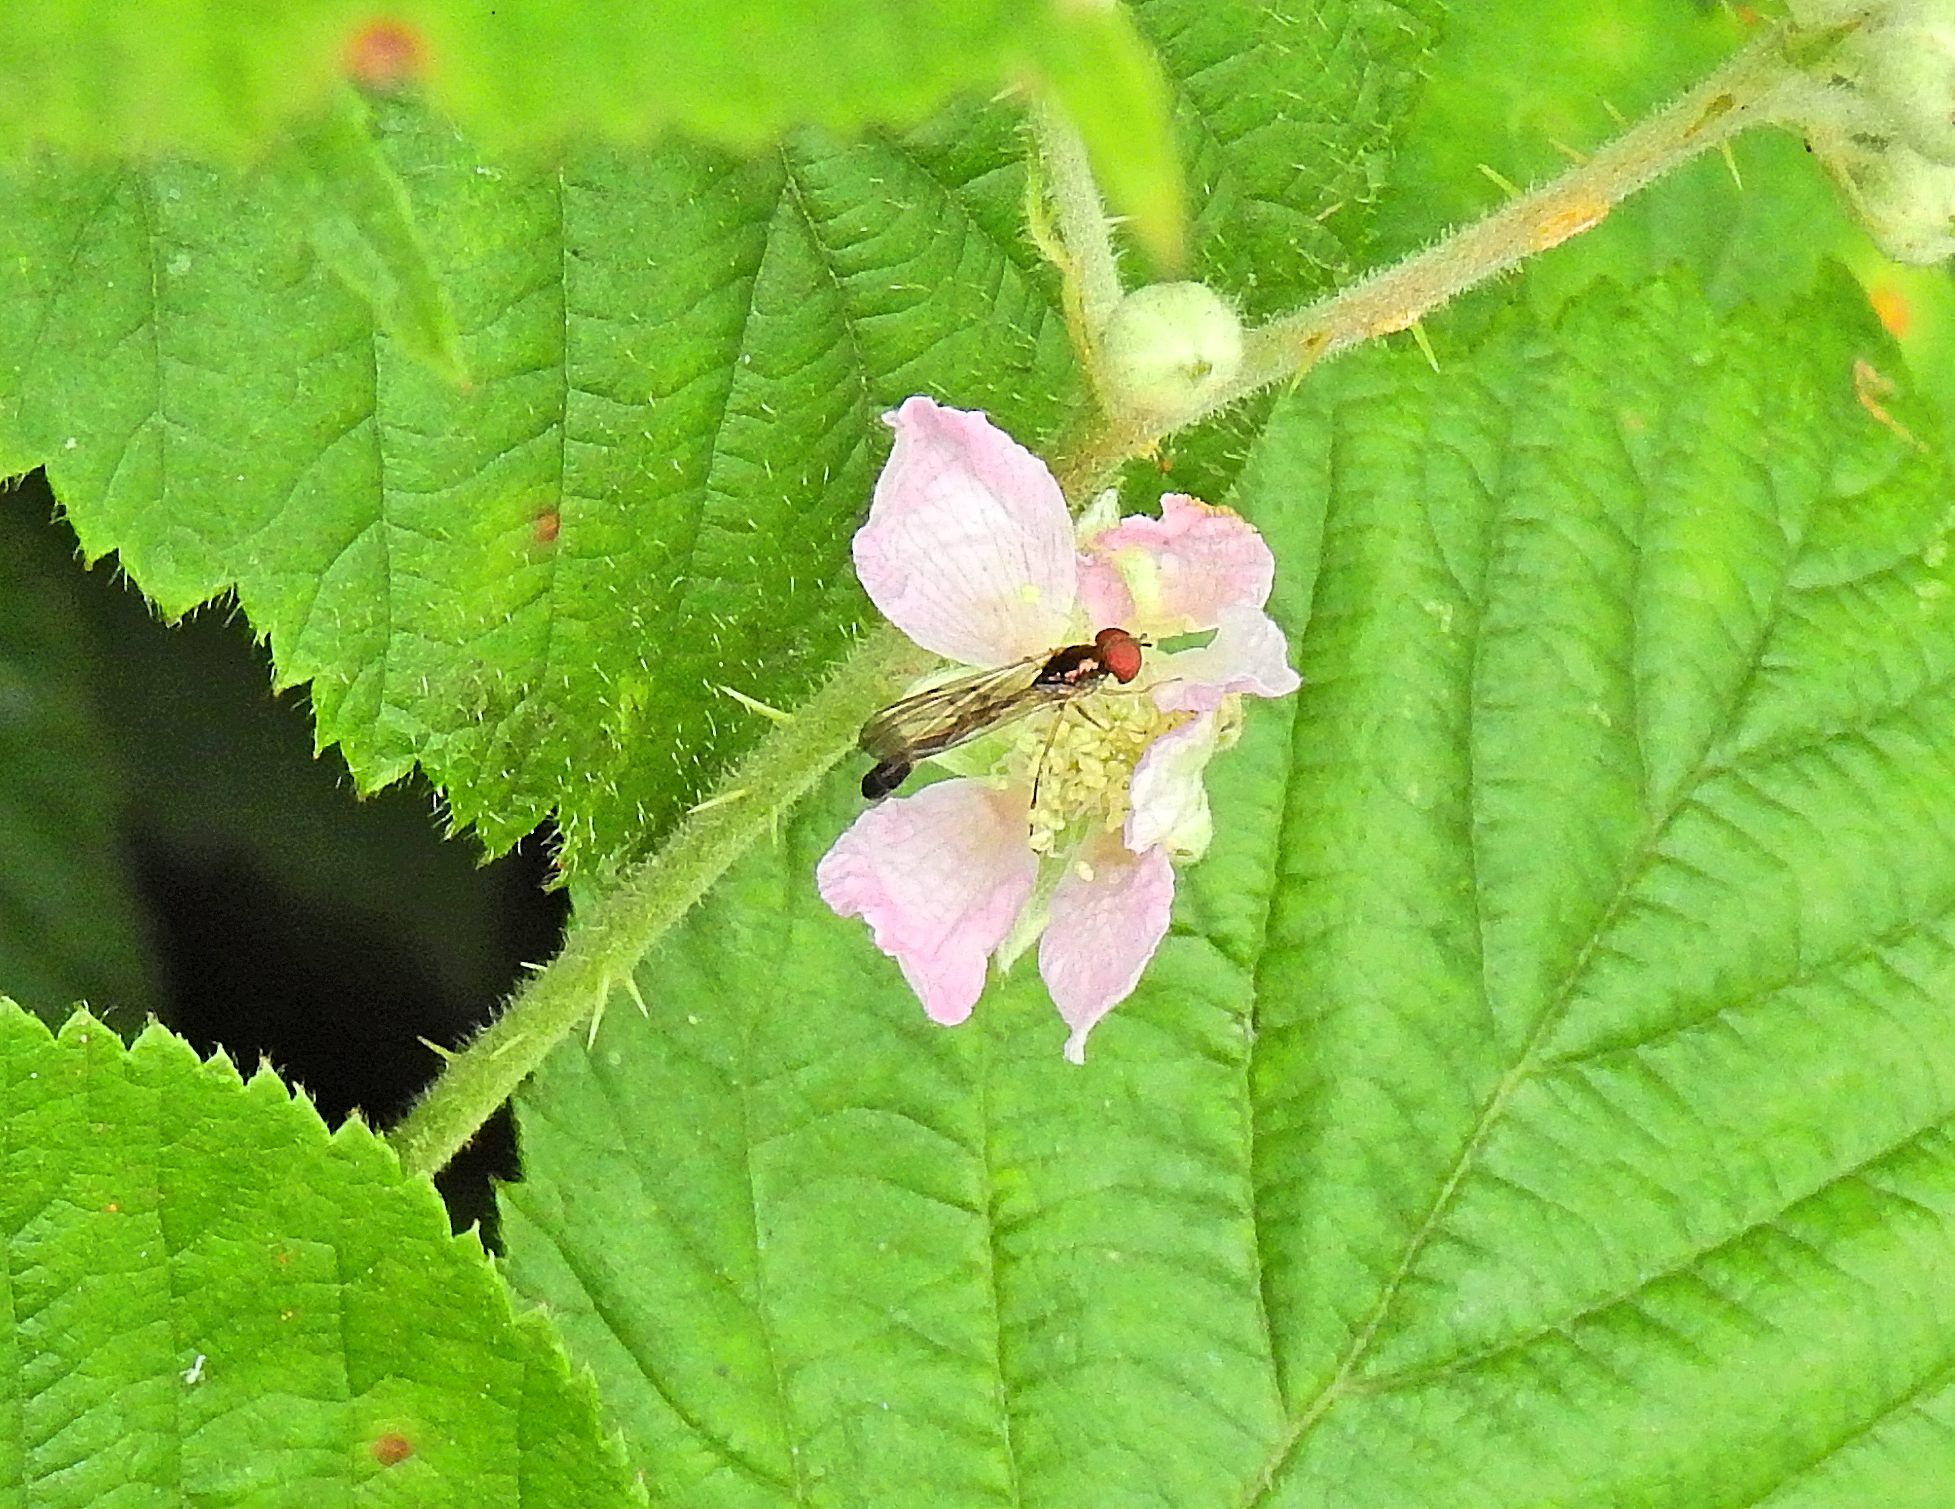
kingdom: Animalia
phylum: Arthropoda
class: Insecta
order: Diptera
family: Syrphidae
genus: Baccha
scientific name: Baccha elongata
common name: Common dainty
